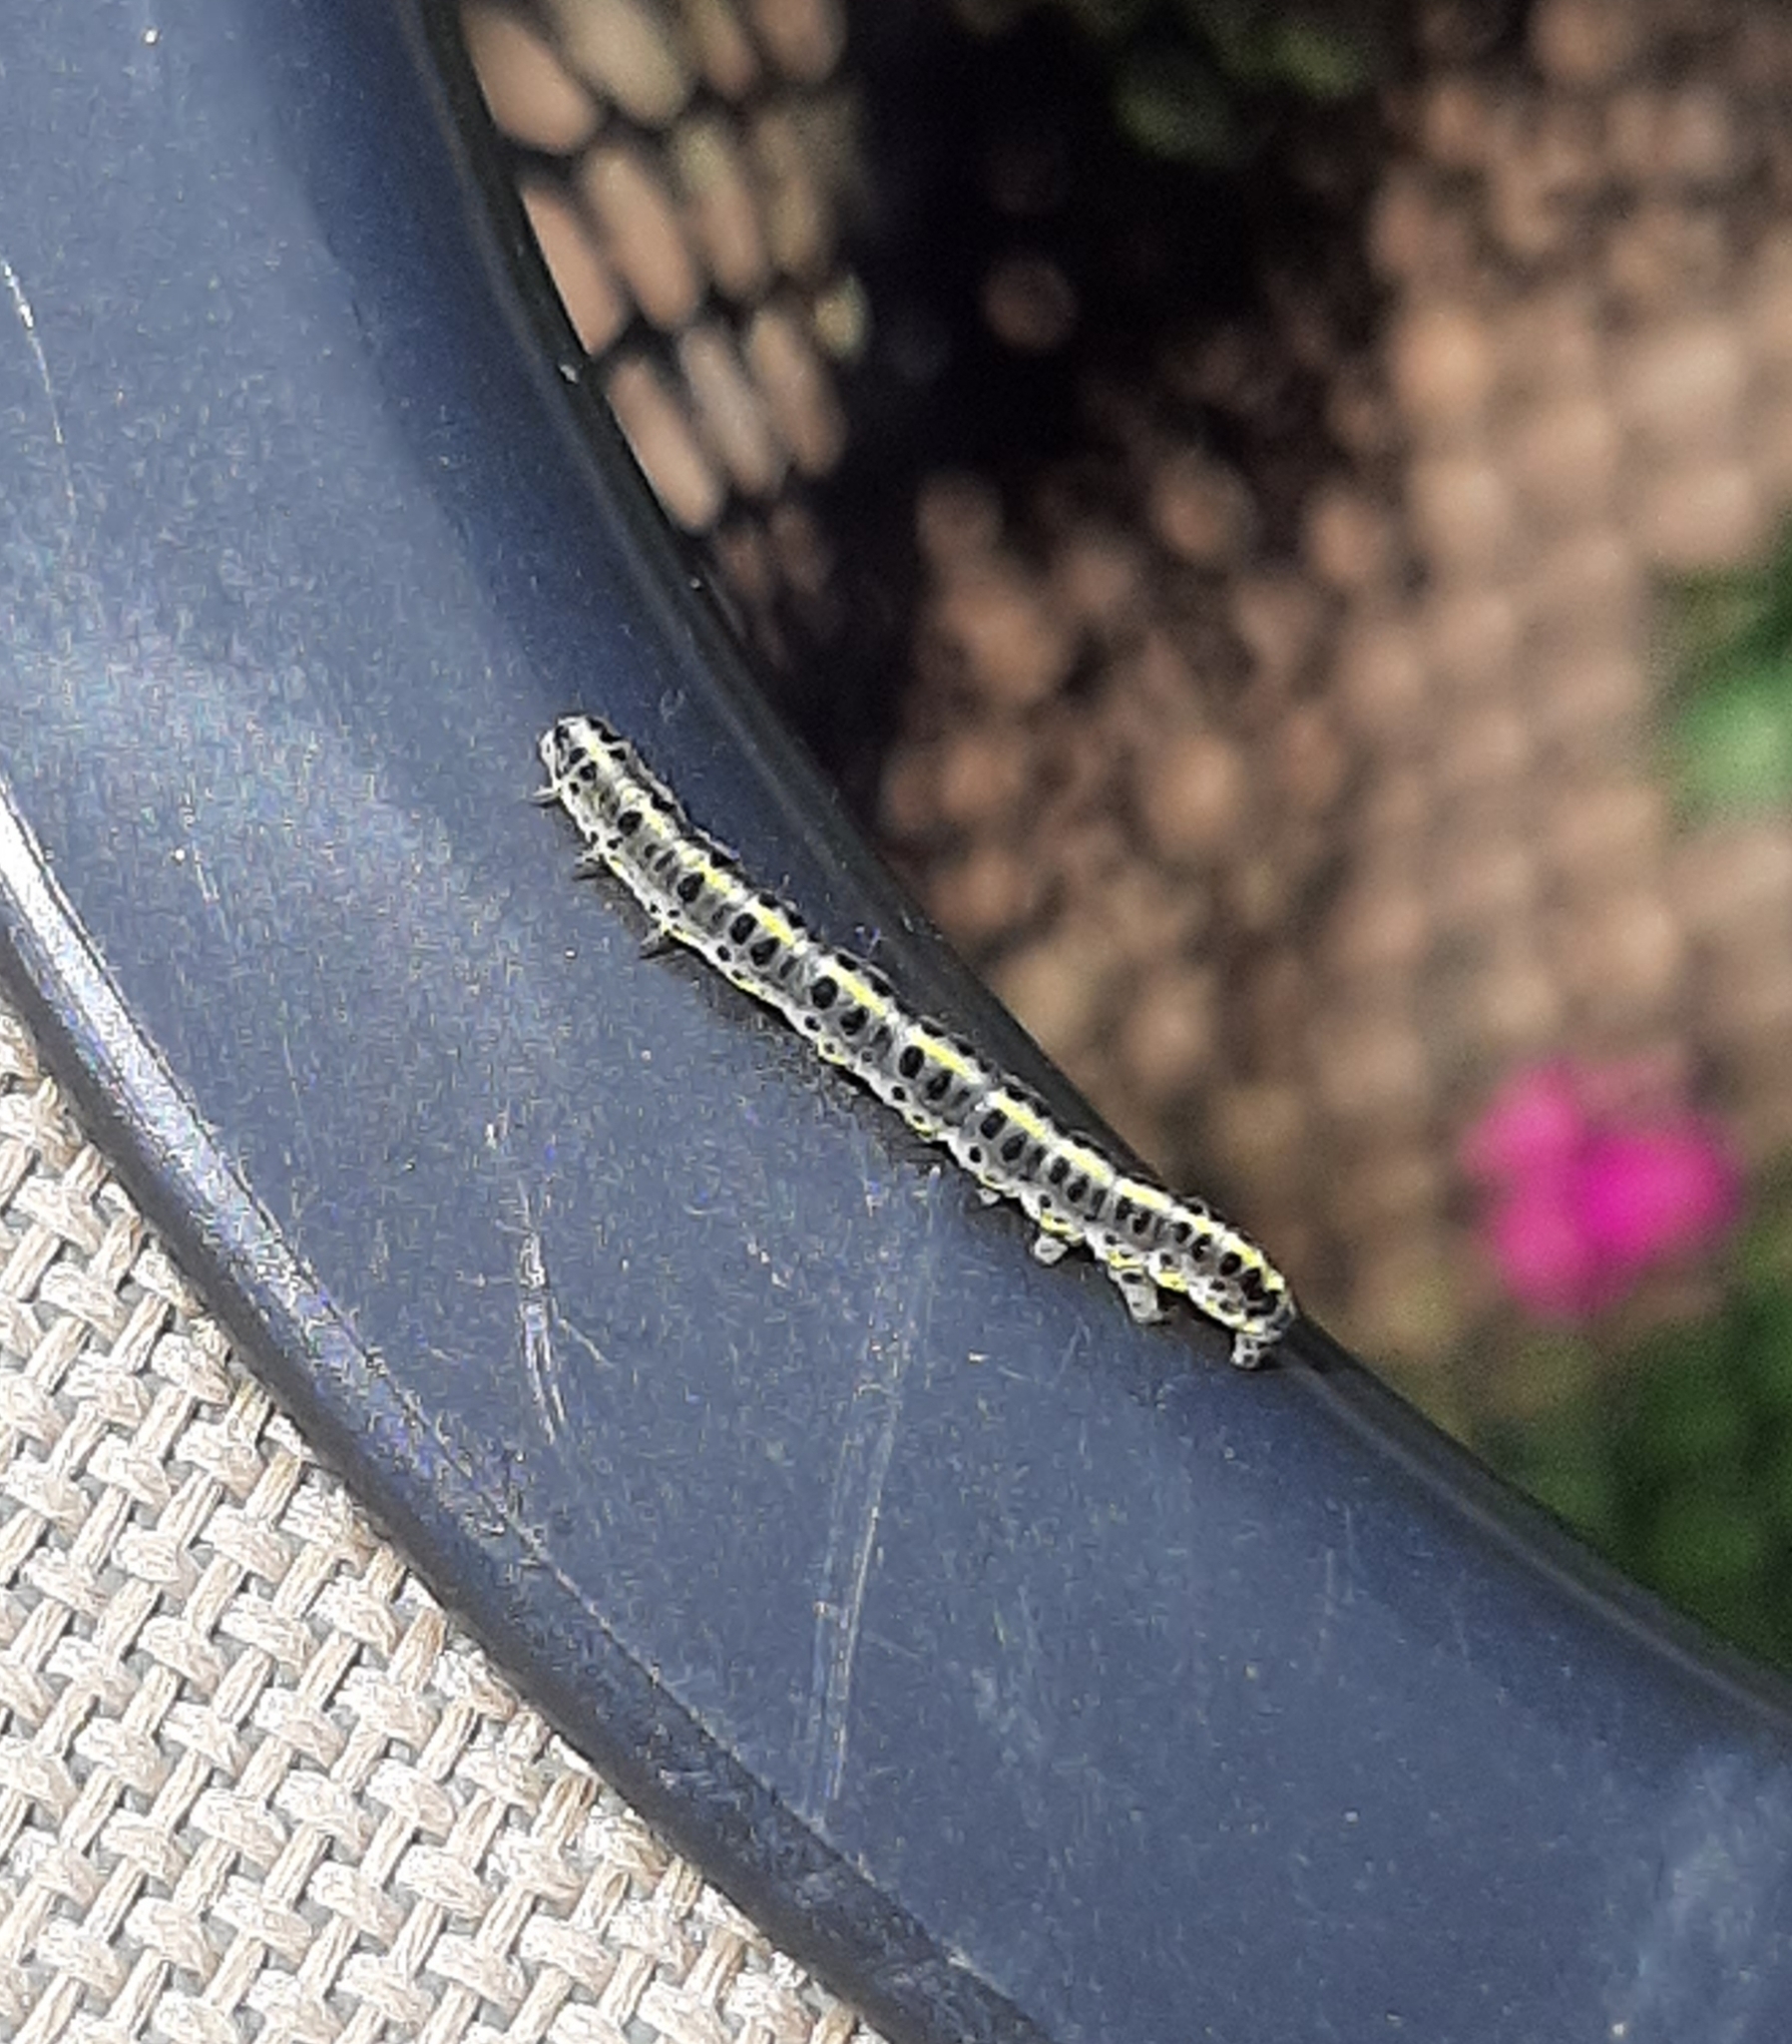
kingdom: Animalia
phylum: Arthropoda
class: Insecta
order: Lepidoptera
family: Noctuidae
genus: Calophasia
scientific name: Calophasia lunula
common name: Toadflax brocade
